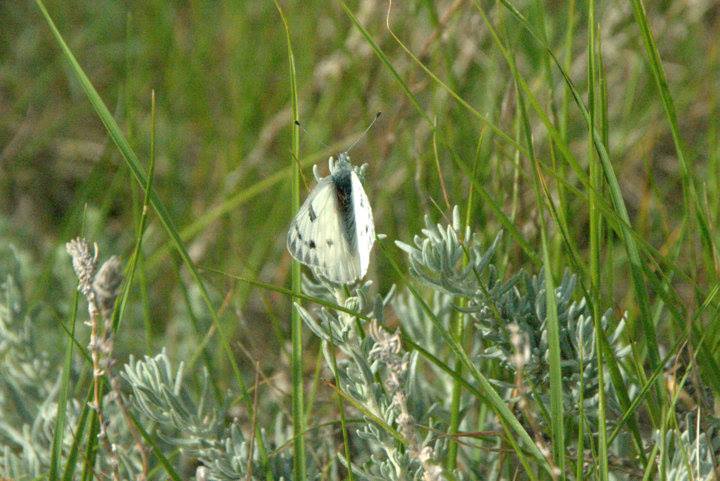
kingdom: Animalia
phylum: Arthropoda
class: Insecta
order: Lepidoptera
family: Pieridae
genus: Pontia
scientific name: Pontia occidentalis
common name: Western white
